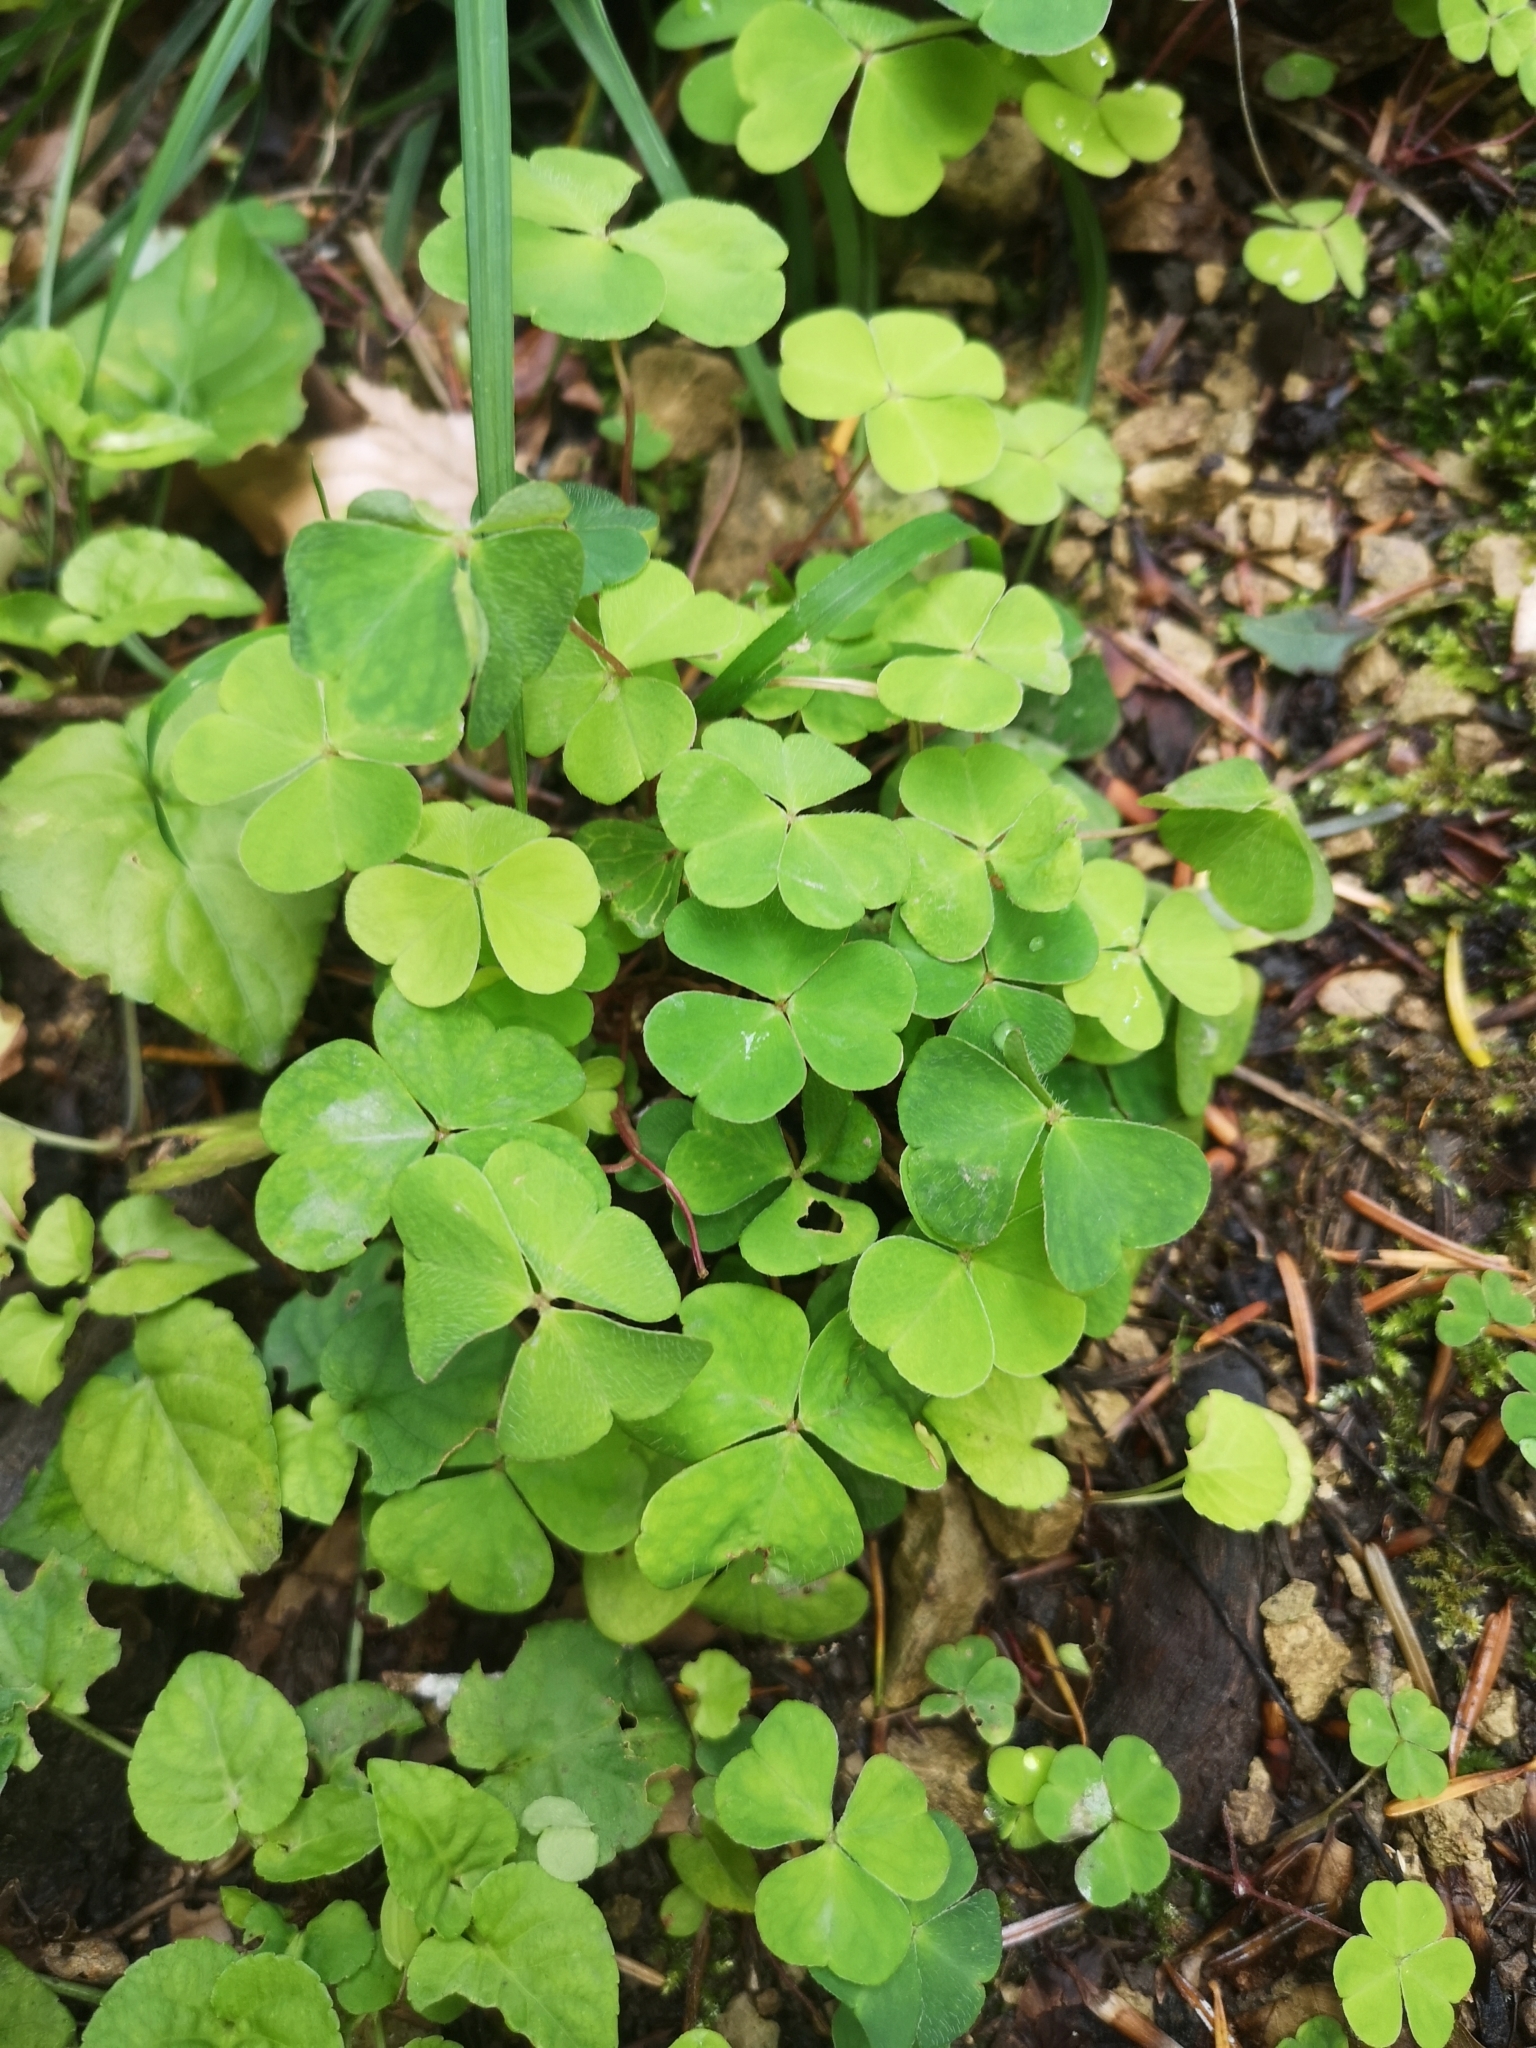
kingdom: Plantae
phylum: Tracheophyta
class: Magnoliopsida
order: Oxalidales
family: Oxalidaceae
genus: Oxalis
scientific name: Oxalis acetosella
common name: Wood-sorrel
